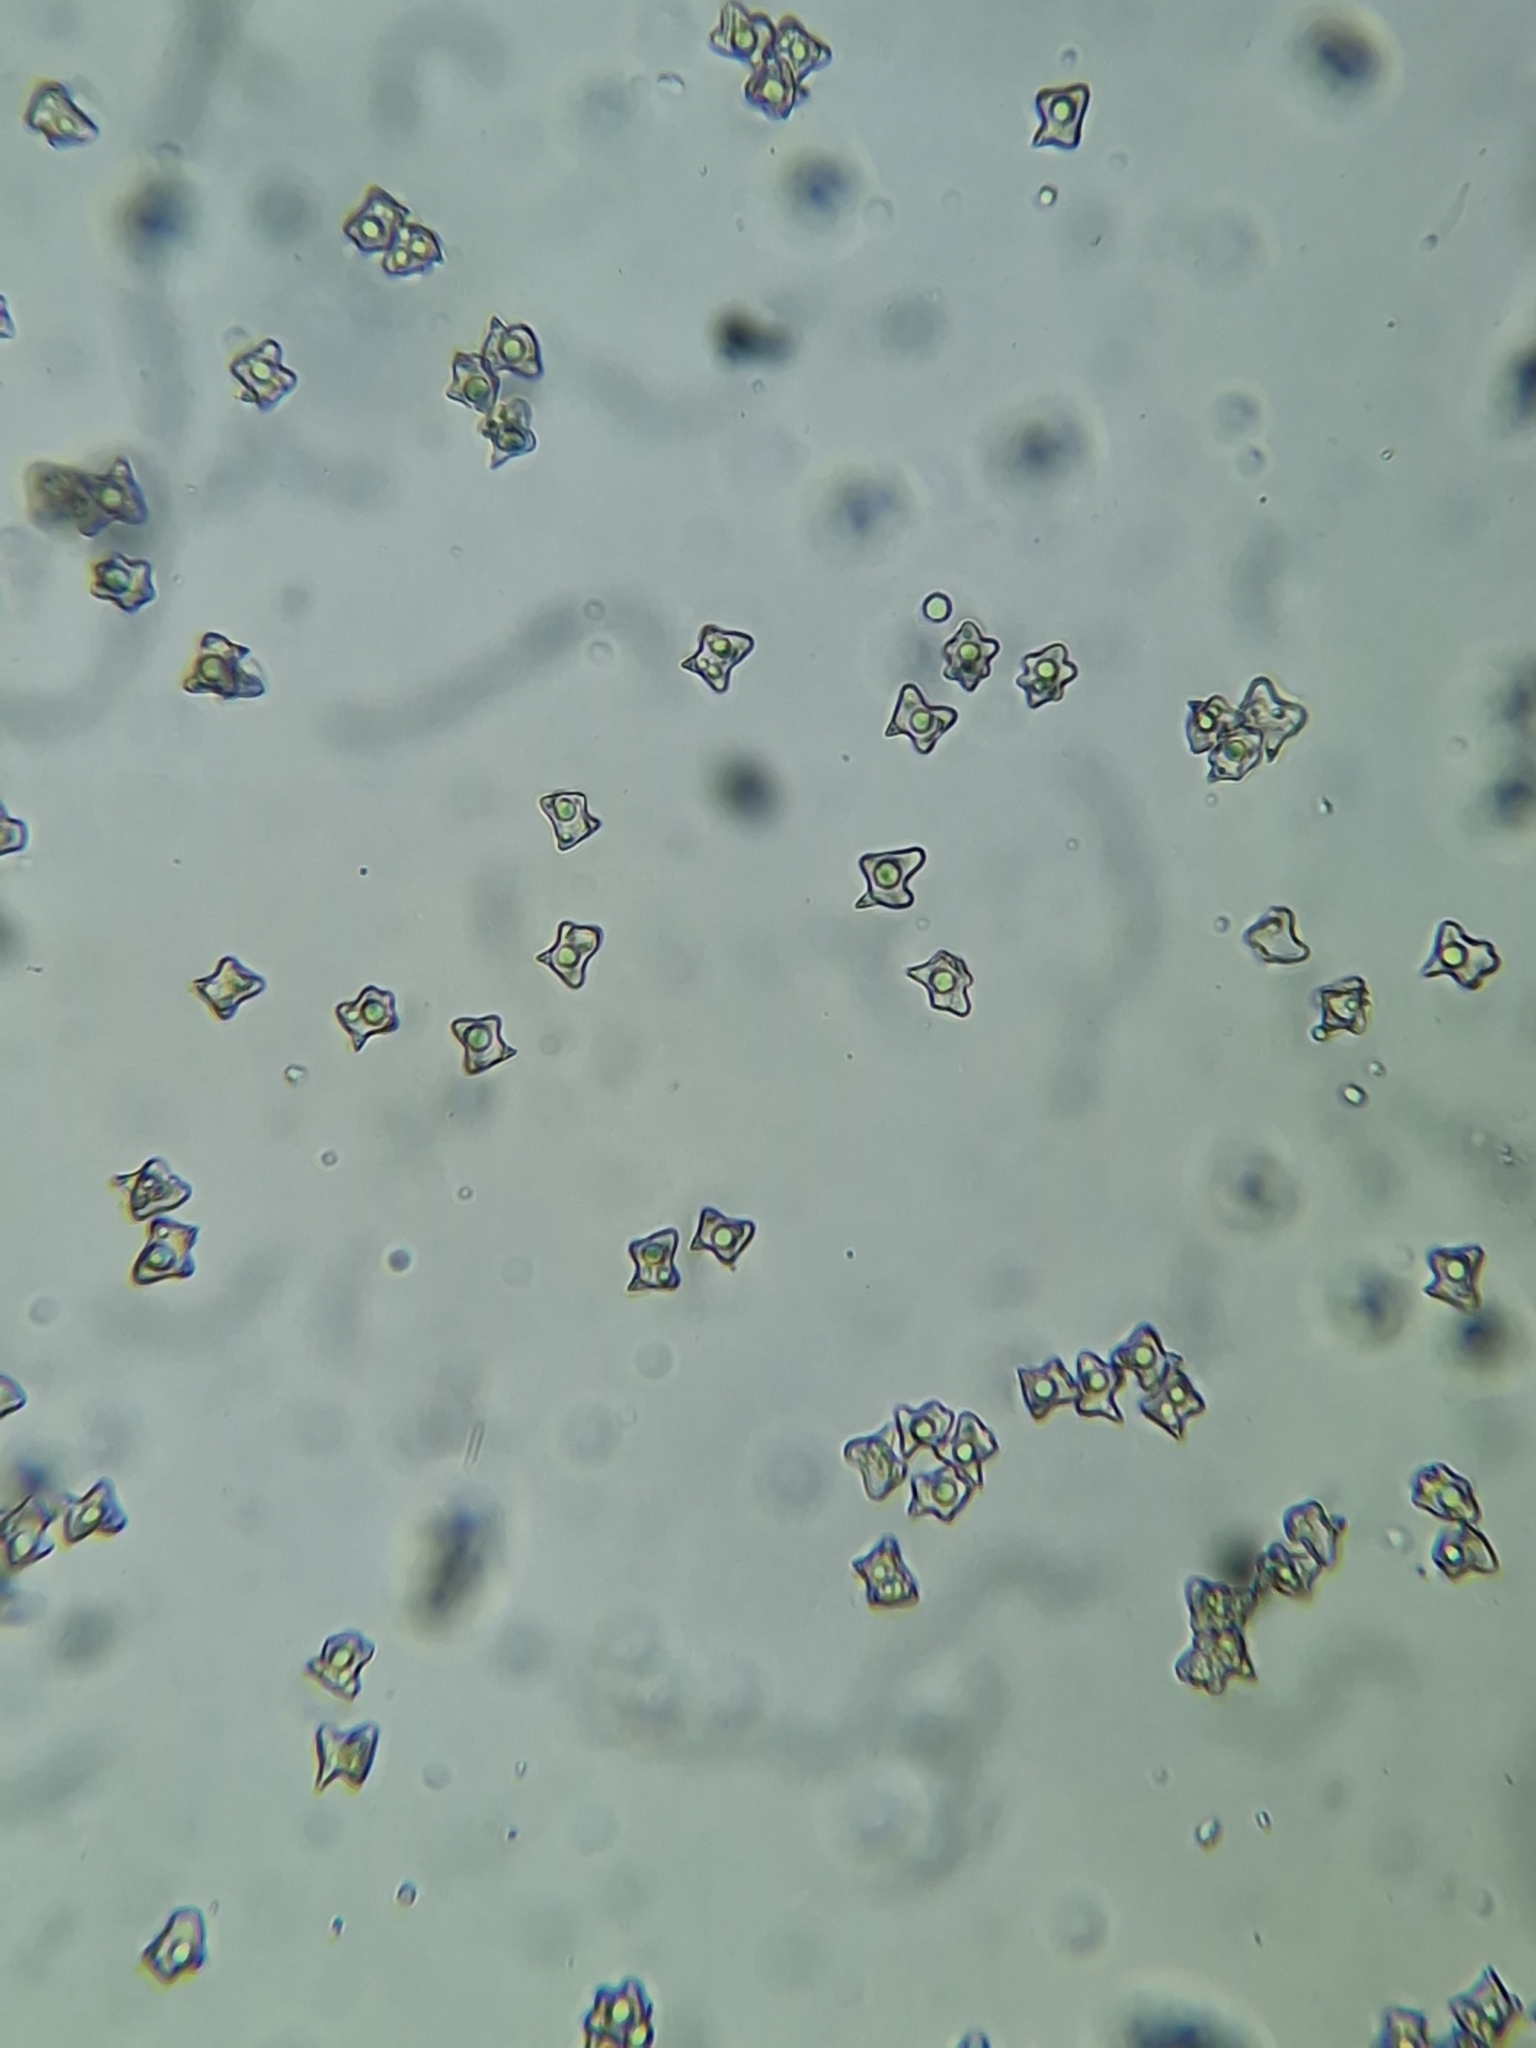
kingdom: Fungi
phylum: Basidiomycota
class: Agaricomycetes
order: Agaricales
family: Entolomataceae
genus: Entoloma
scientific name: Entoloma conferendum
